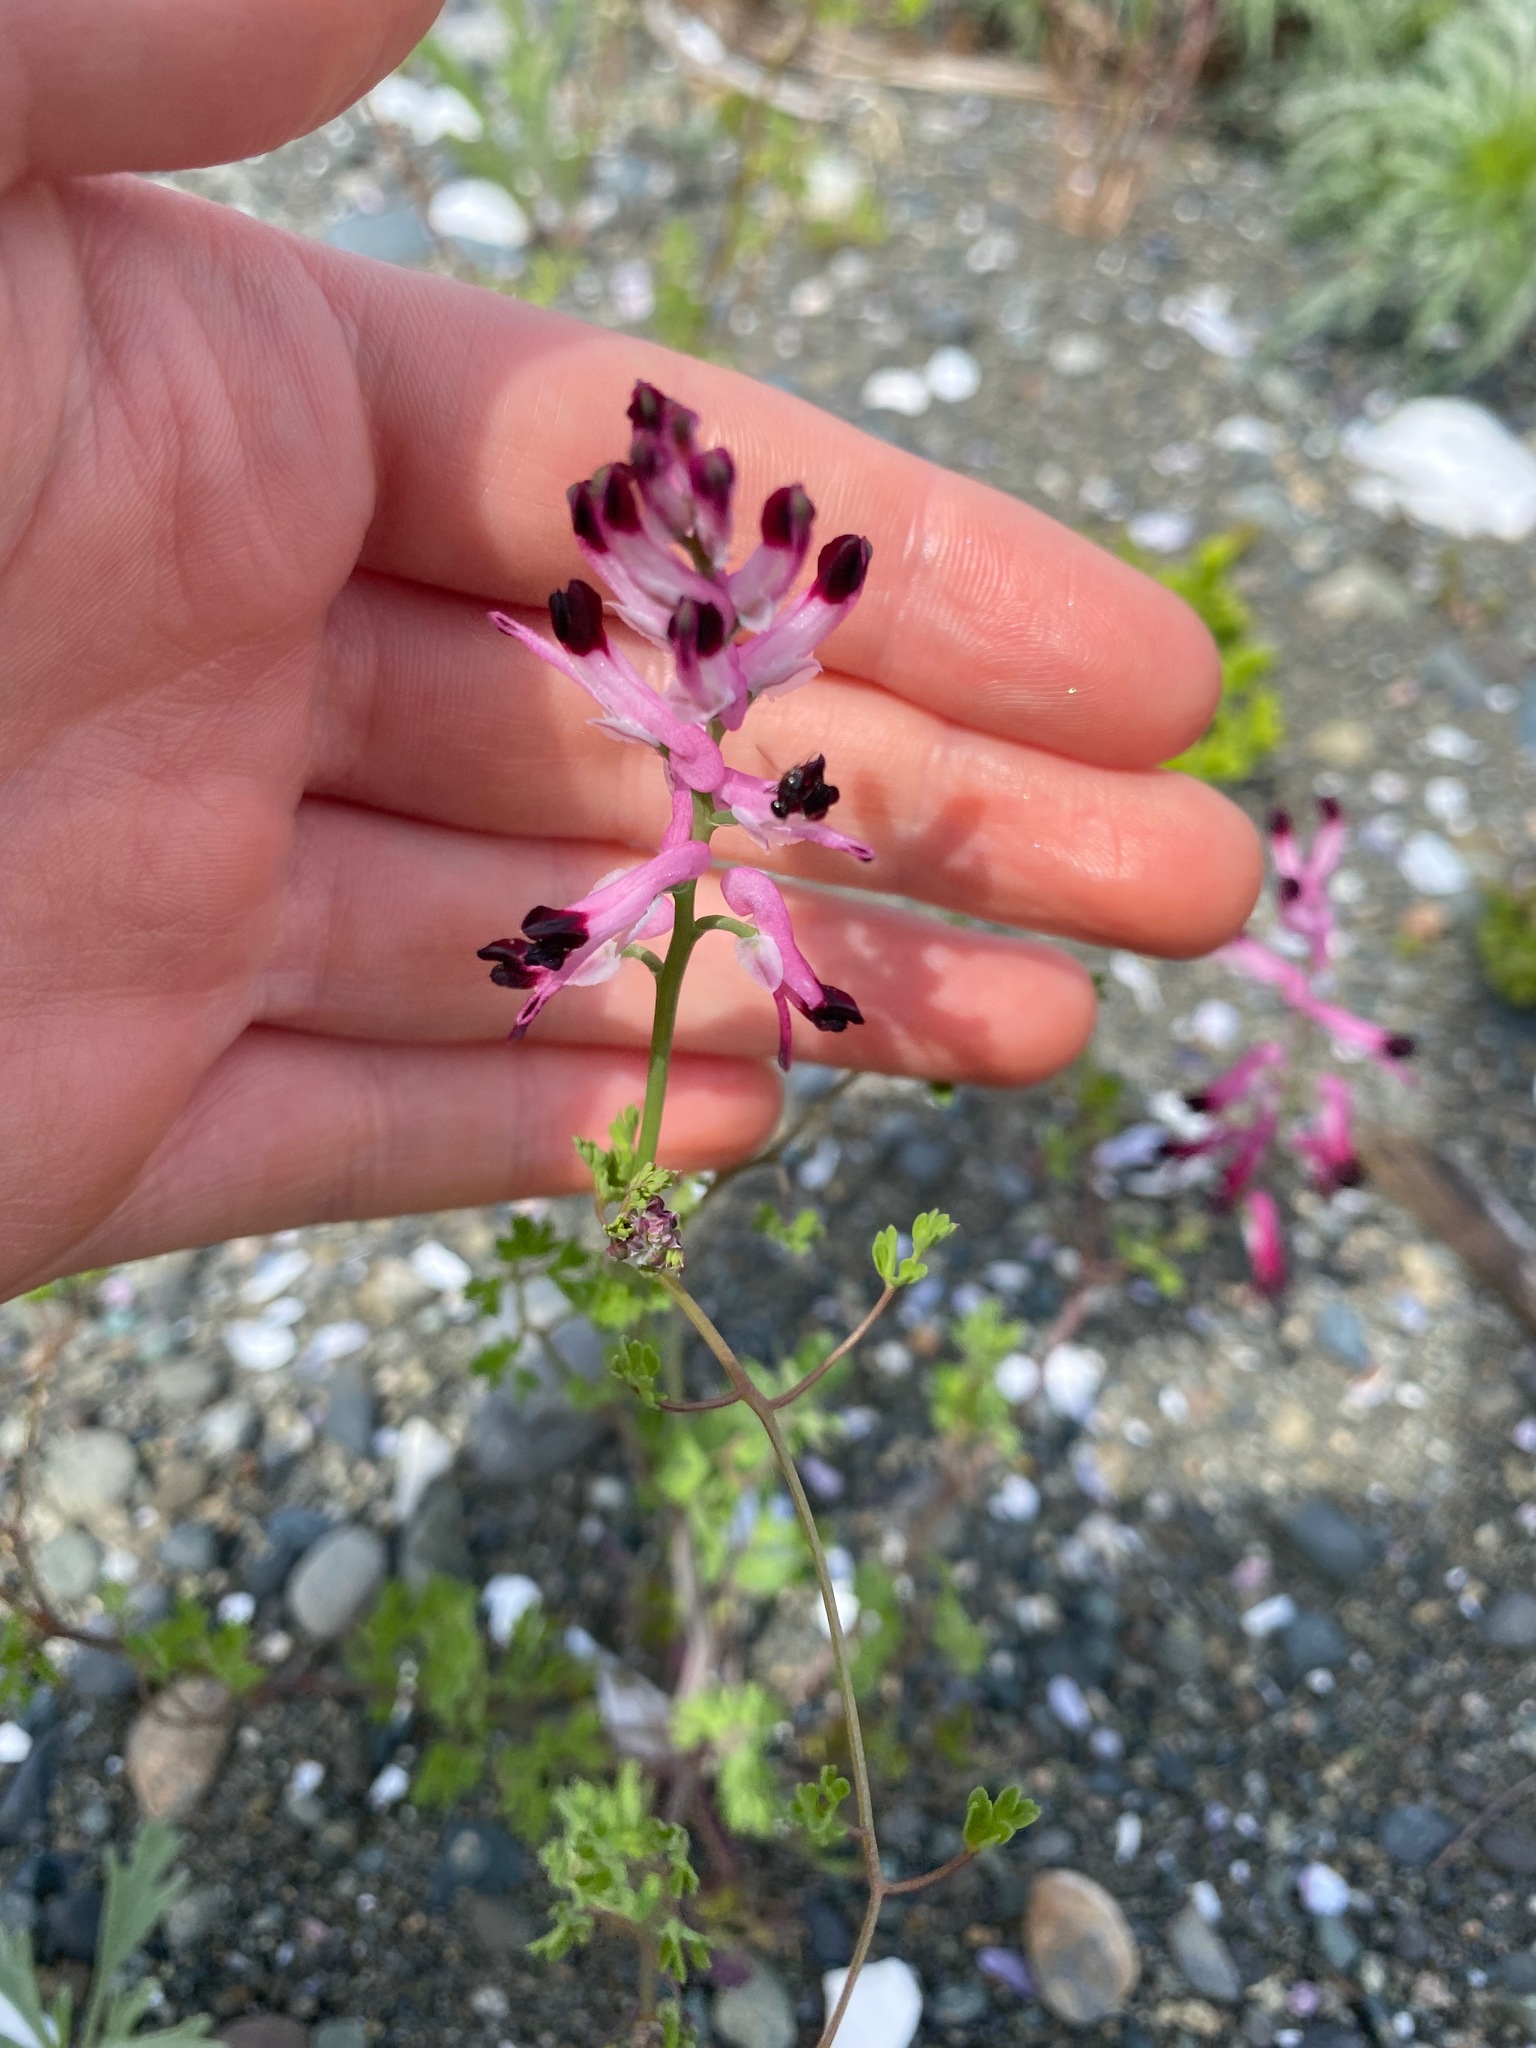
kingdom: Plantae
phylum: Tracheophyta
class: Magnoliopsida
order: Ranunculales
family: Papaveraceae
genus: Fumaria
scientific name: Fumaria muralis
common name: Common ramping-fumitory
